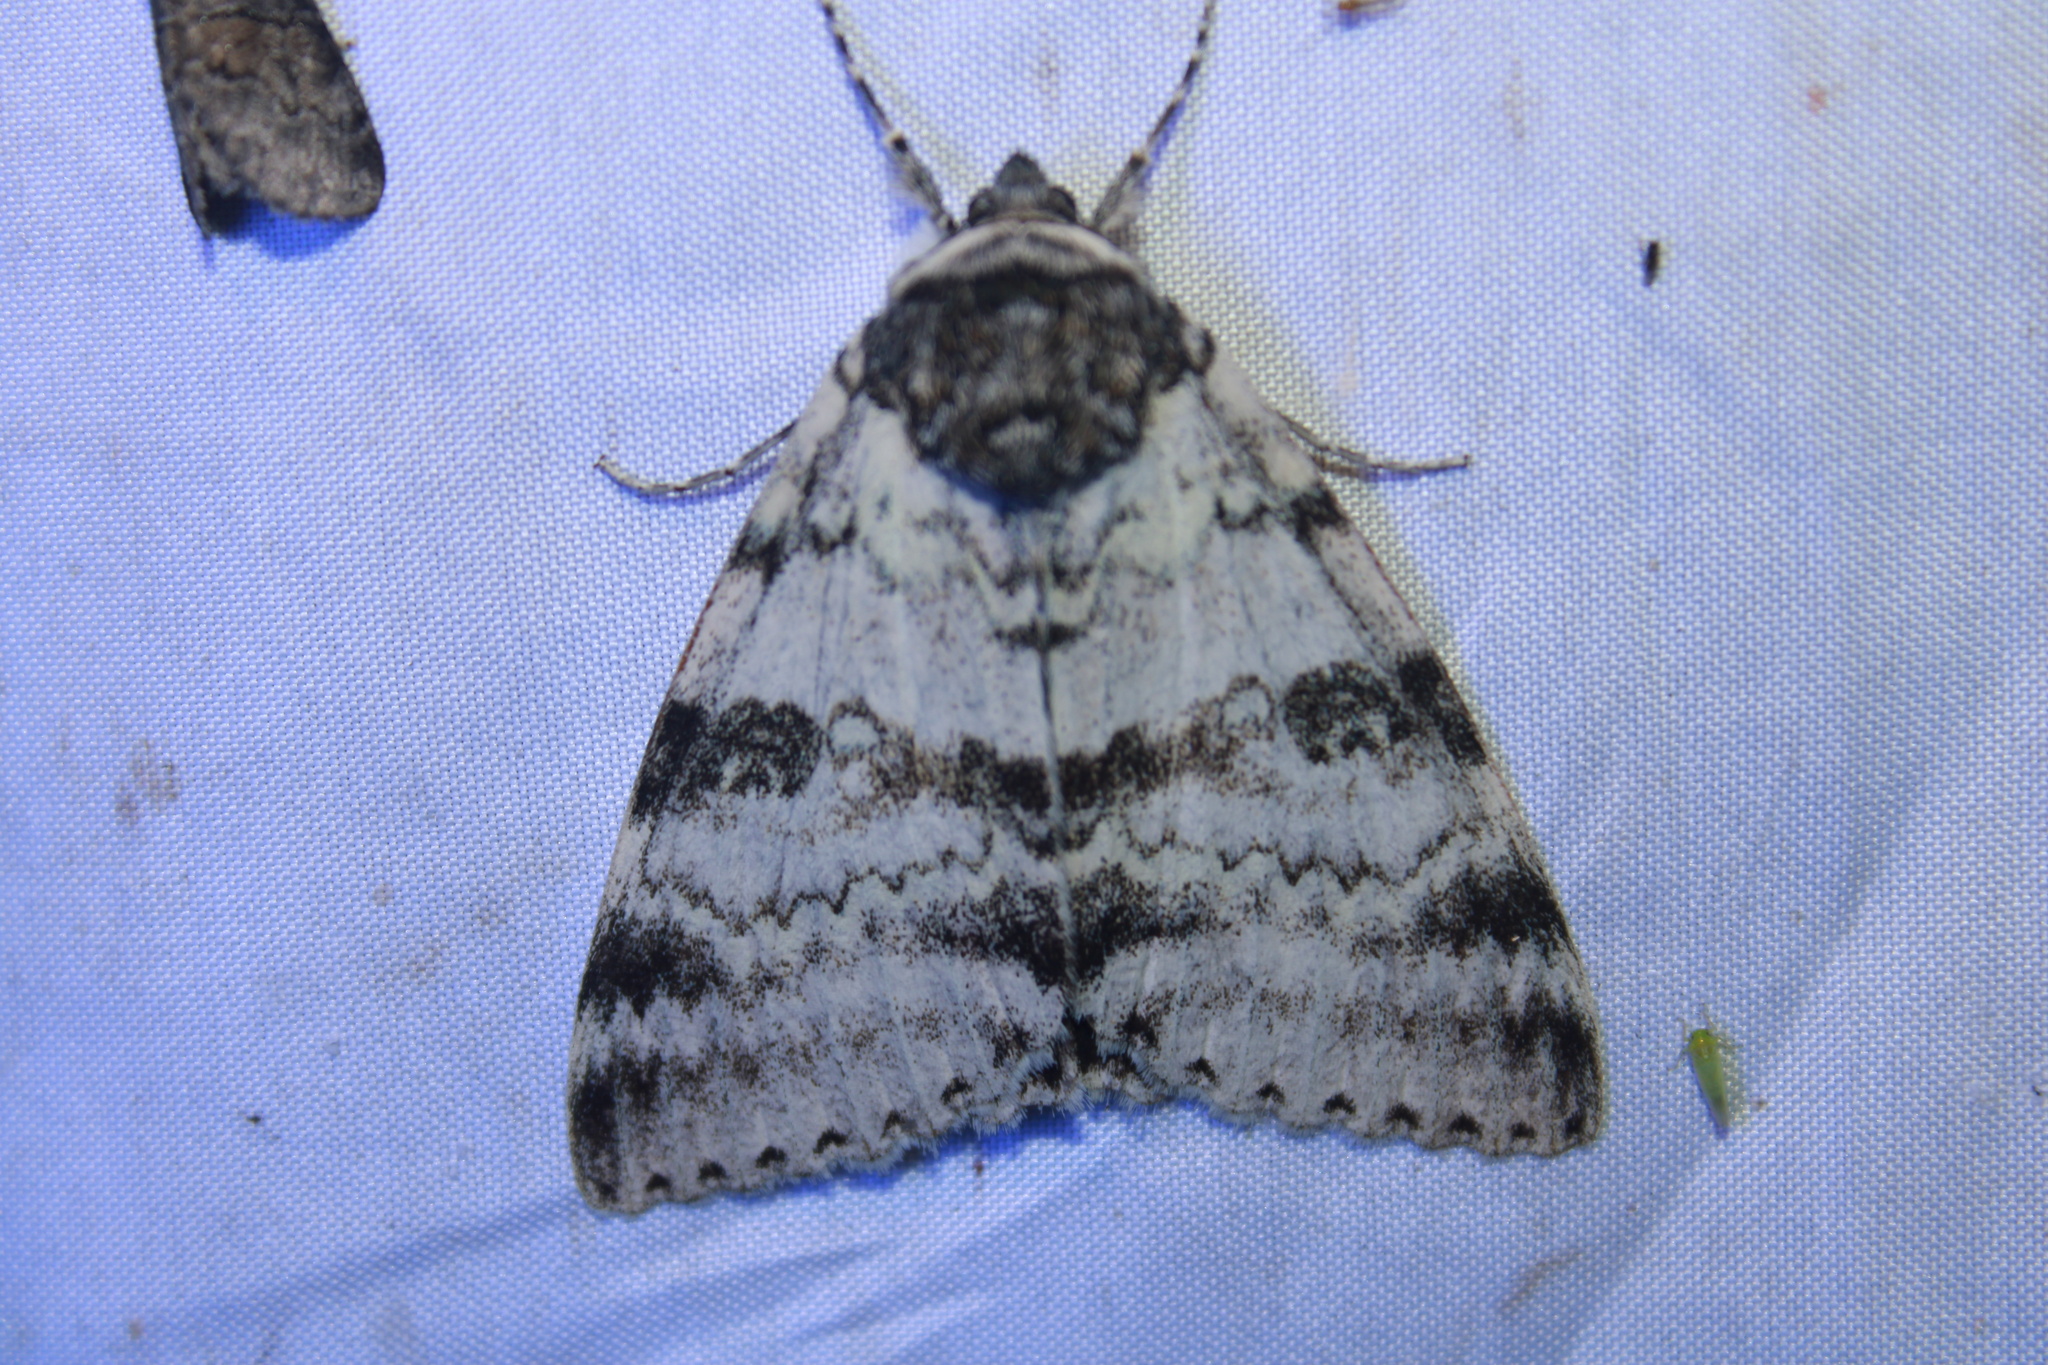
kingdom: Animalia
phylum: Arthropoda
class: Insecta
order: Lepidoptera
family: Erebidae
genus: Catocala
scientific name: Catocala relicta
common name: White underwing
